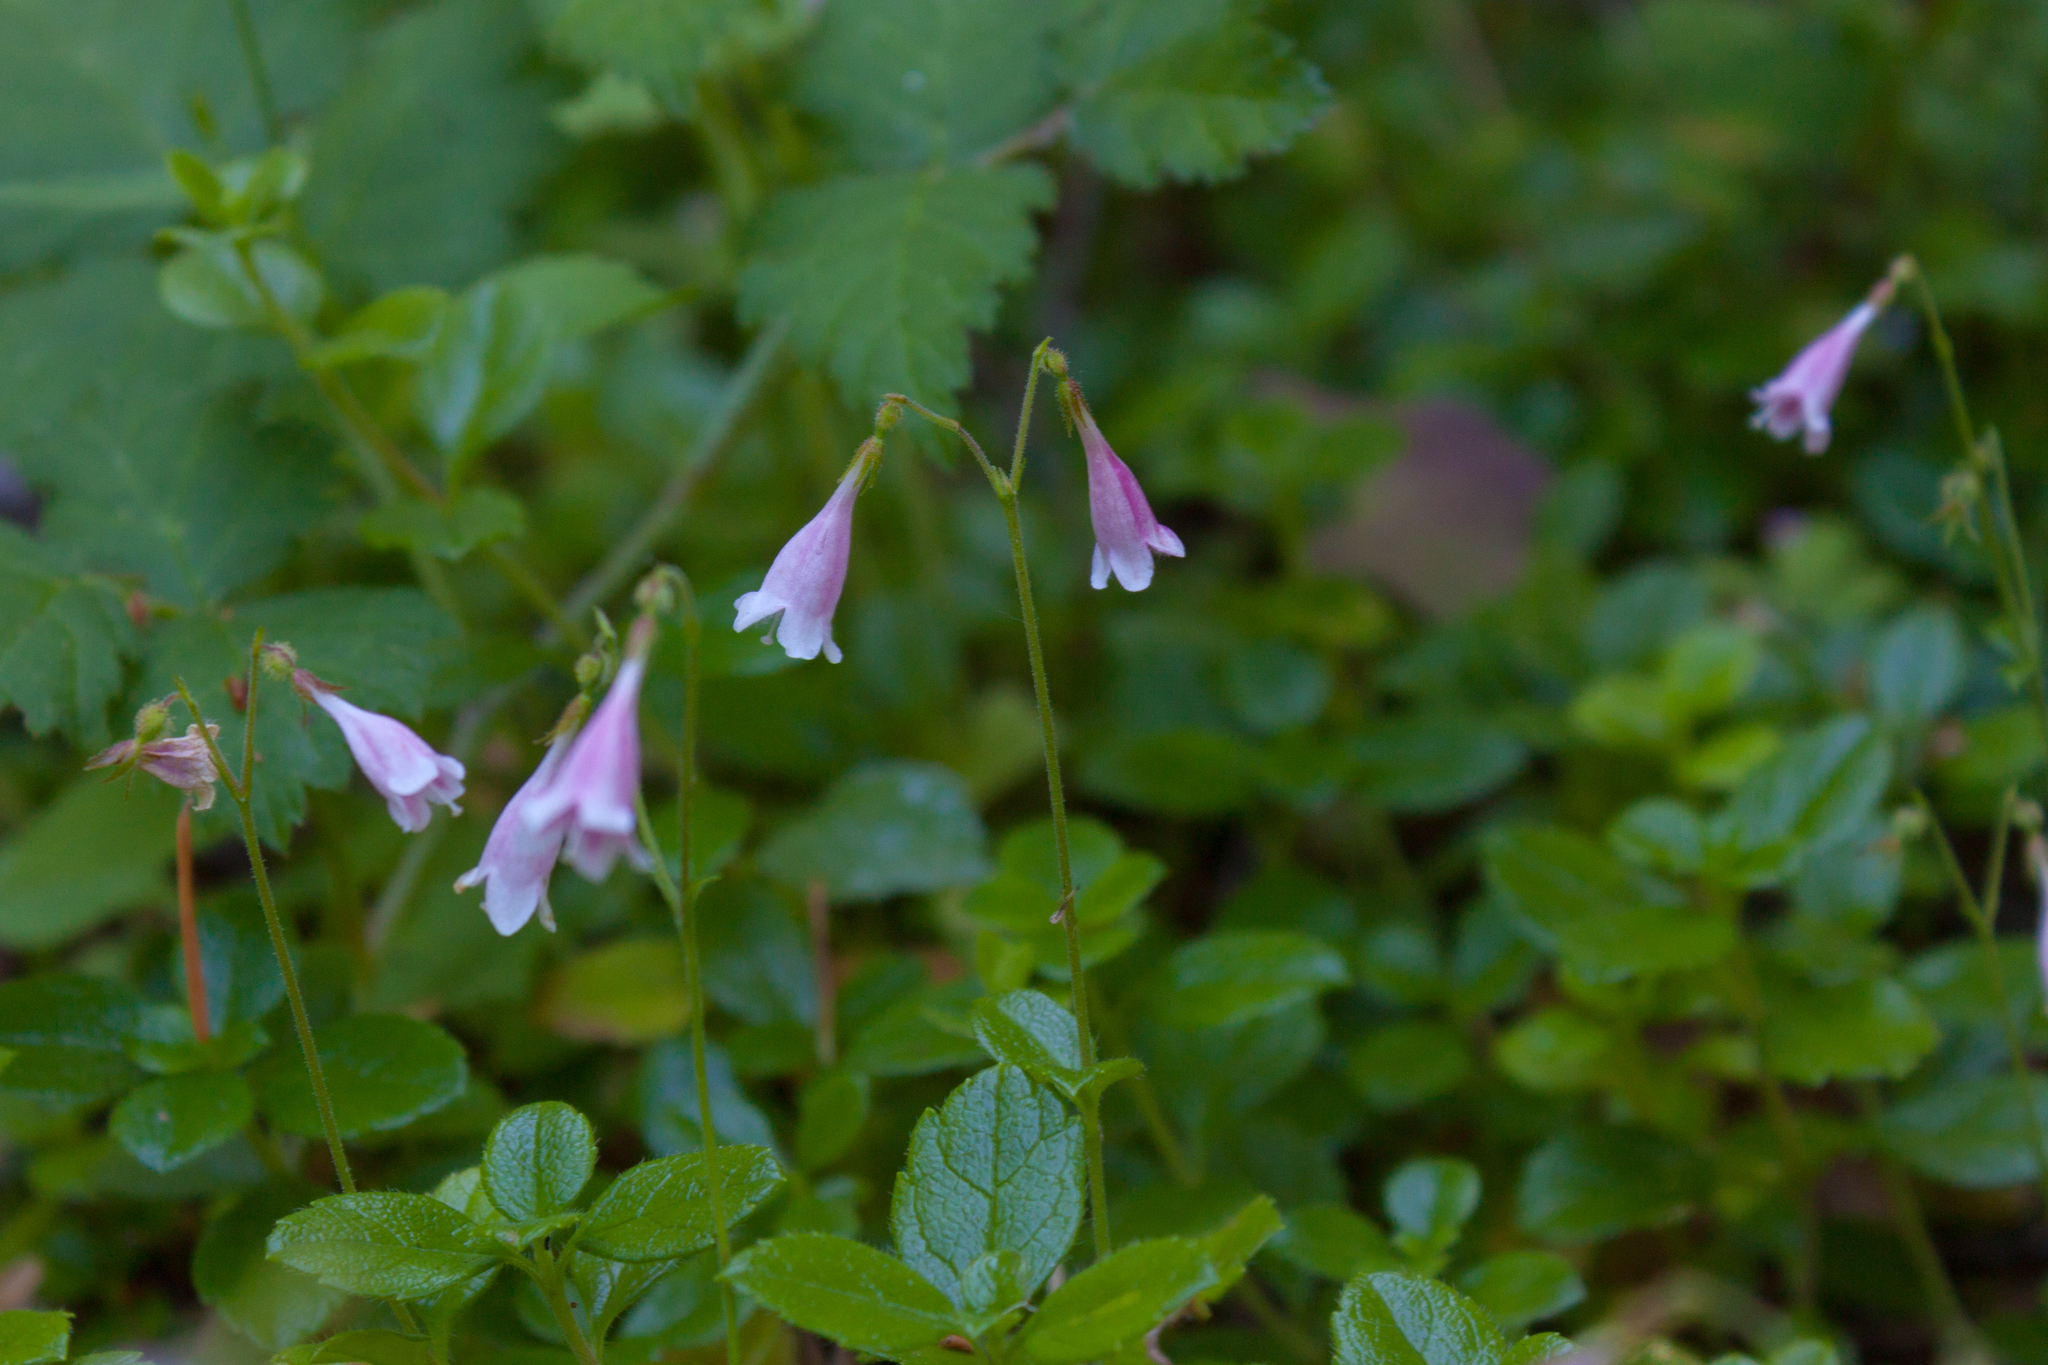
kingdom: Plantae
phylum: Tracheophyta
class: Magnoliopsida
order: Dipsacales
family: Caprifoliaceae
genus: Linnaea
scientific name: Linnaea borealis
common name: Twinflower
